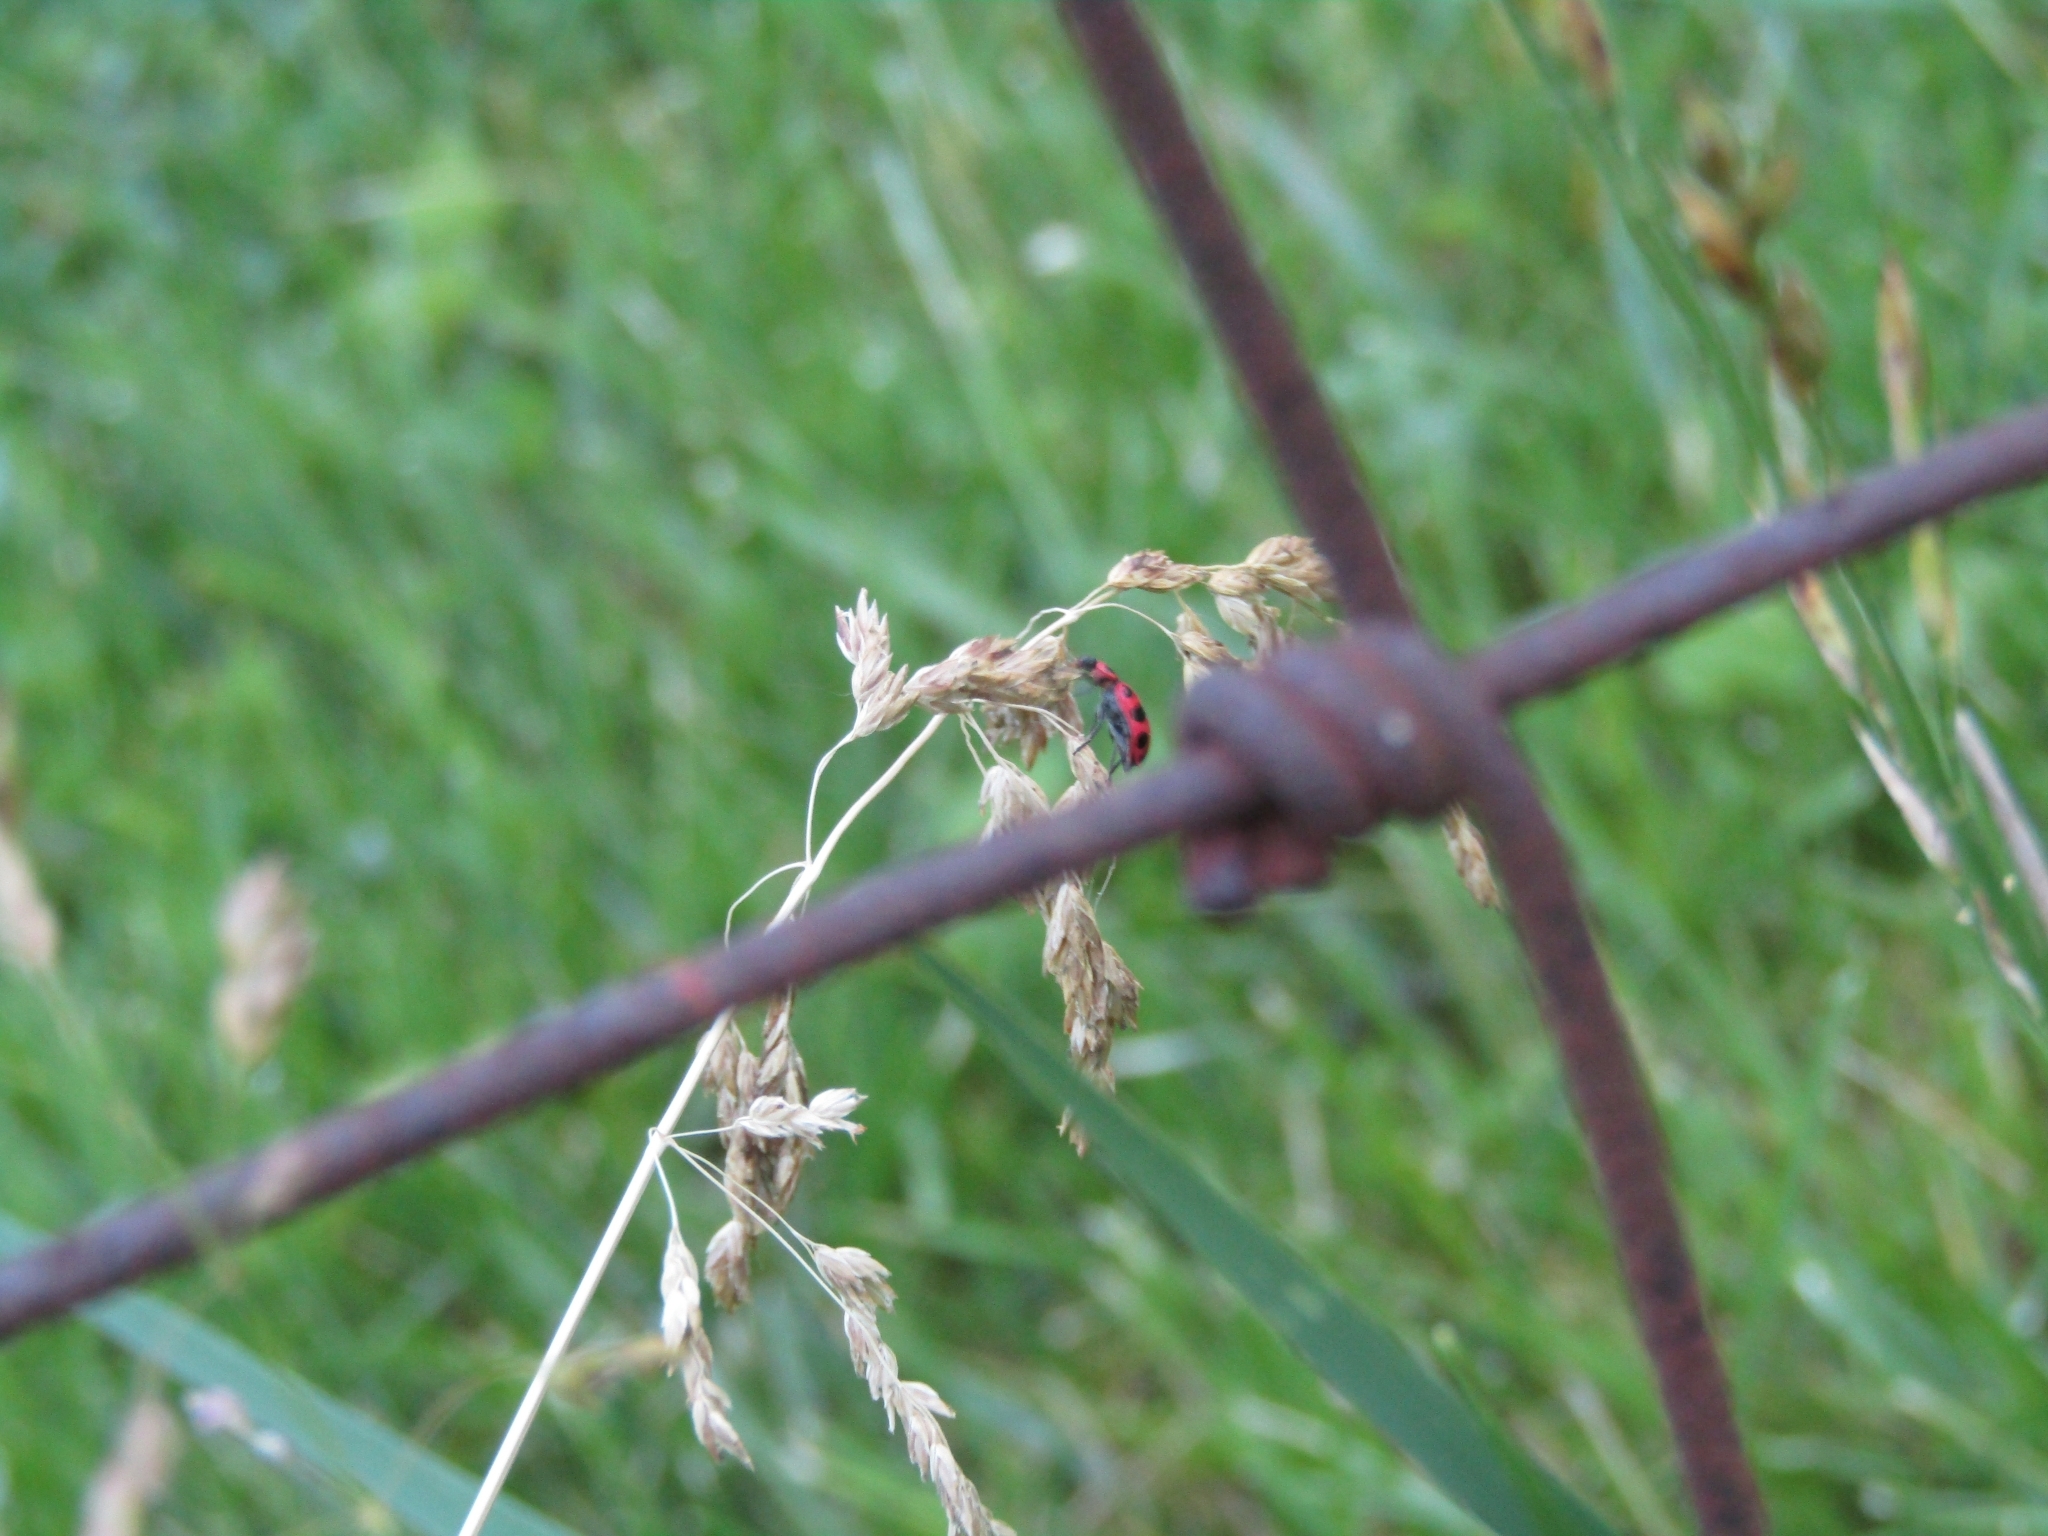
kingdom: Animalia
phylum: Arthropoda
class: Insecta
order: Coleoptera
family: Coccinellidae
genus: Coleomegilla
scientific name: Coleomegilla maculata
